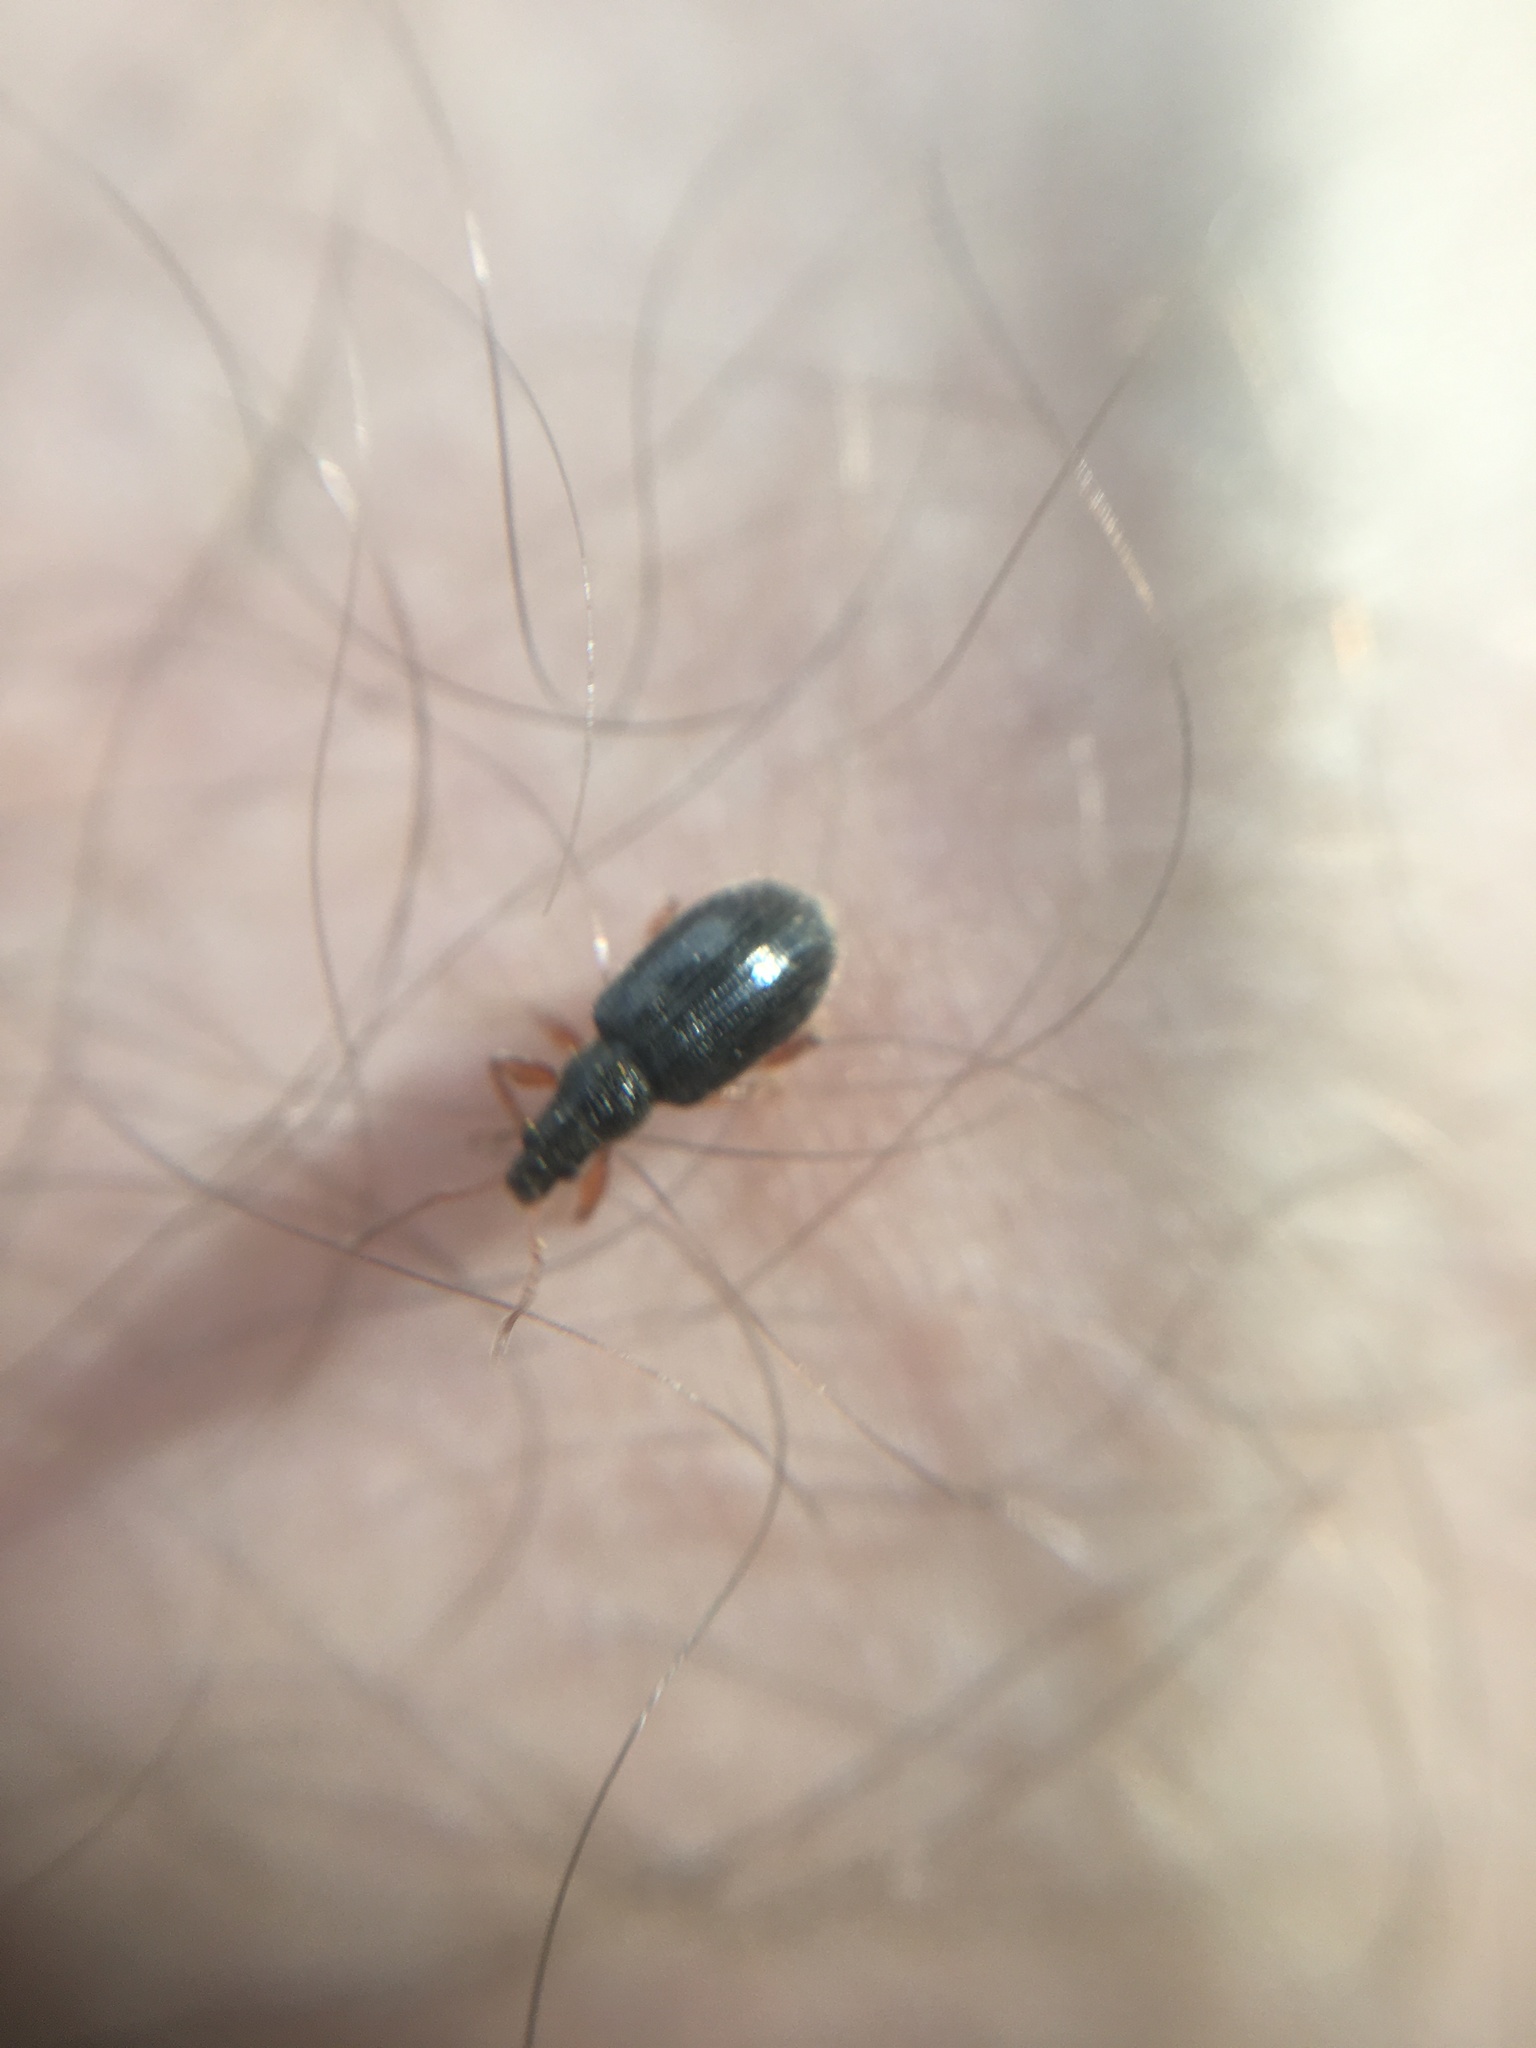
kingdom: Animalia
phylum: Arthropoda
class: Insecta
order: Coleoptera
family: Curculionidae
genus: Phyllobius
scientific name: Phyllobius oblongus
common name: Brown leaf weevil
